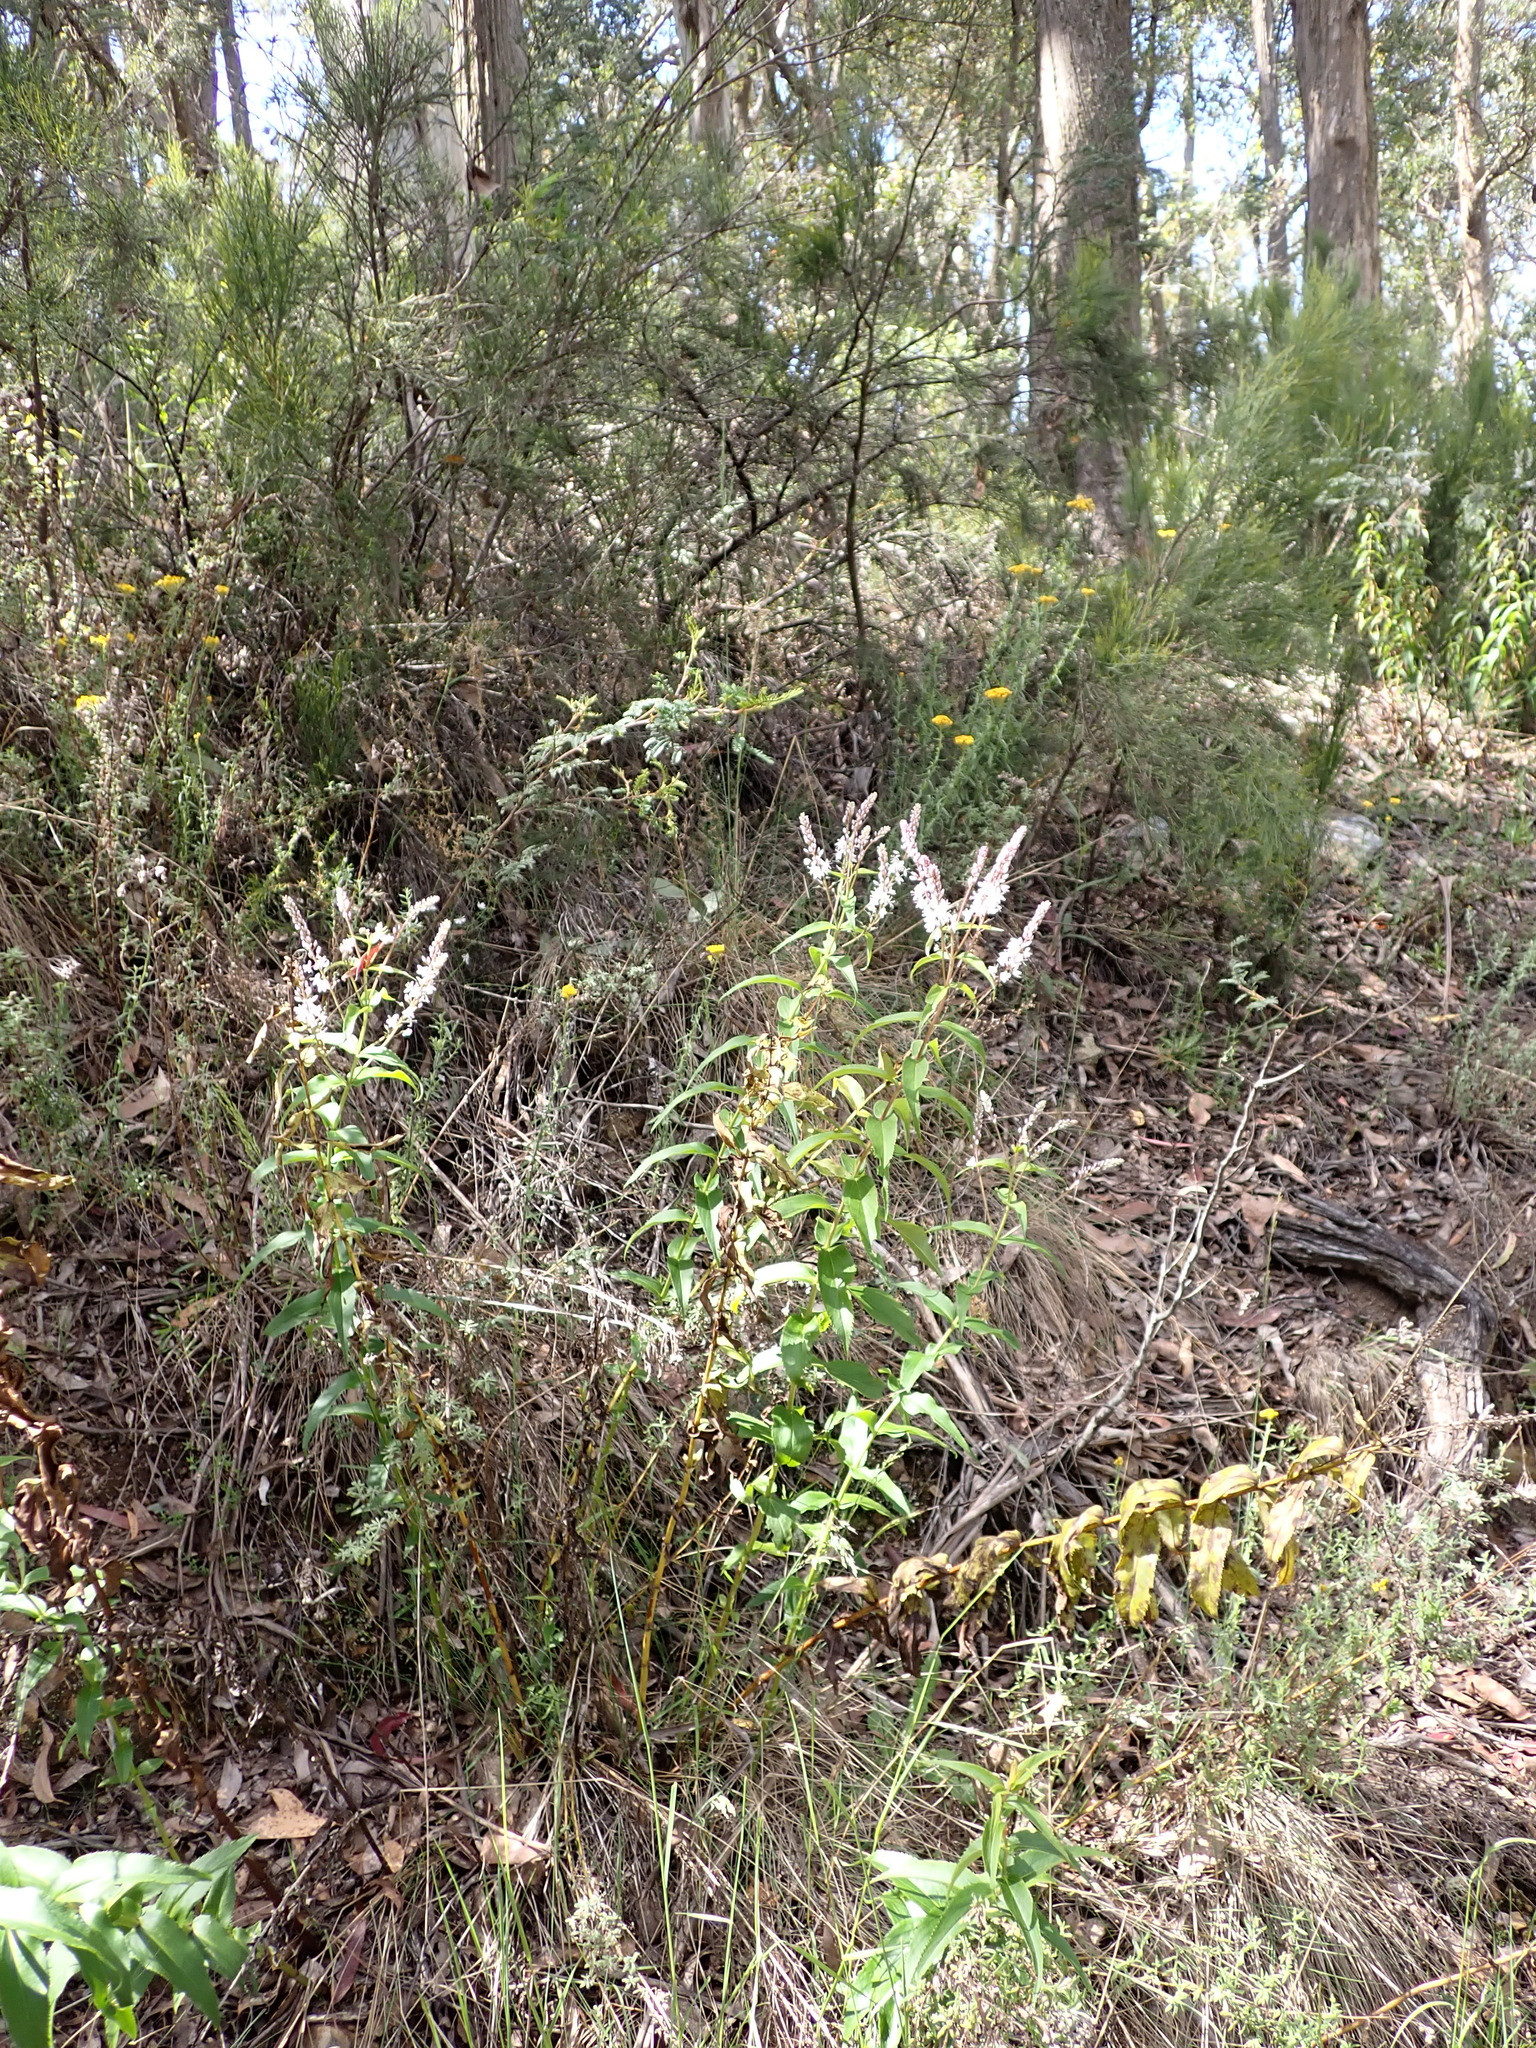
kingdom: Plantae
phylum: Tracheophyta
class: Magnoliopsida
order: Lamiales
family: Plantaginaceae
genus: Veronica
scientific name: Veronica derwentiana
